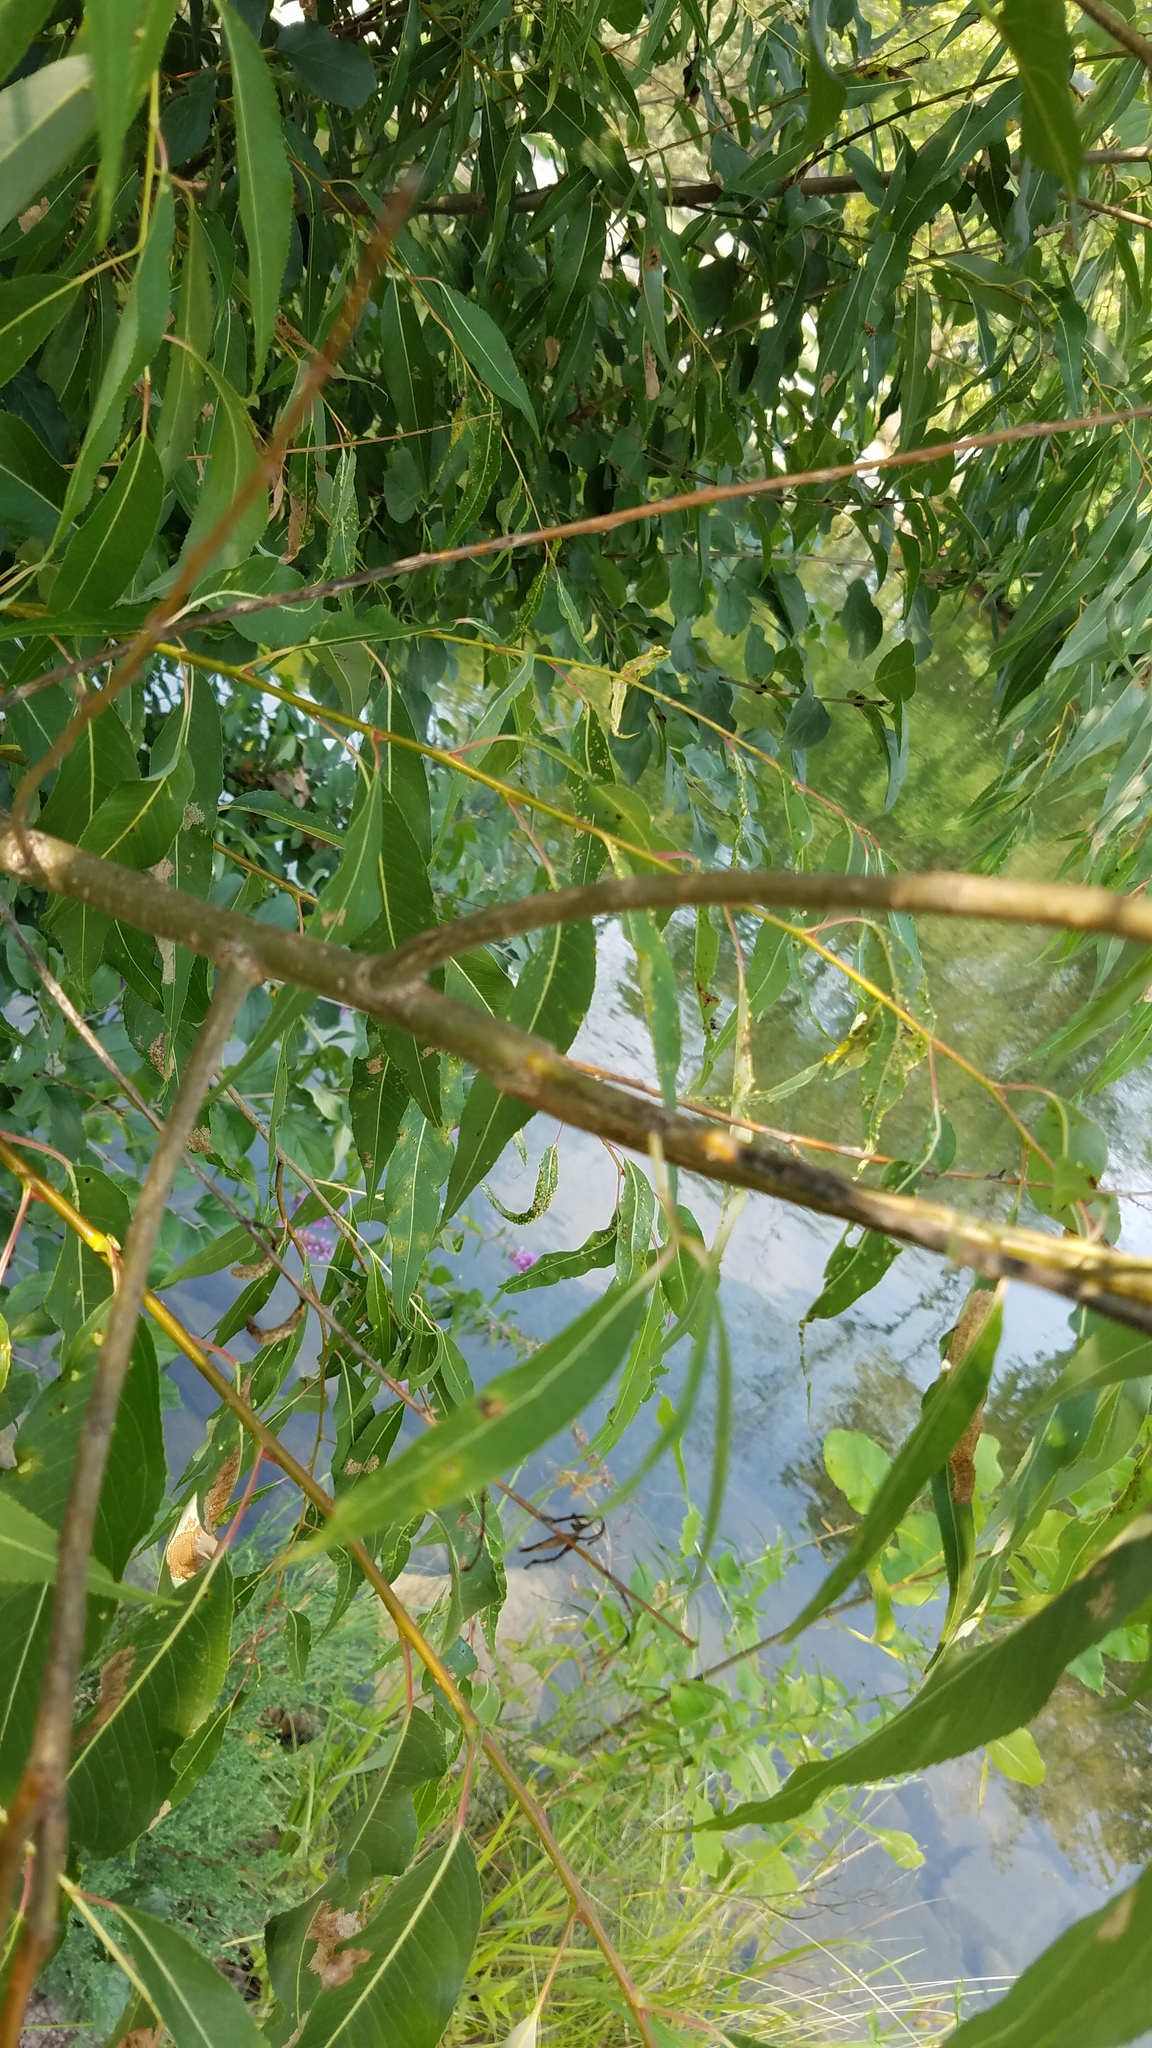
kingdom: Animalia
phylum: Arthropoda
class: Arachnida
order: Trombidiformes
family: Eriophyidae
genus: Aculus
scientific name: Aculus tetanothrix
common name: Willow bead gall mite
